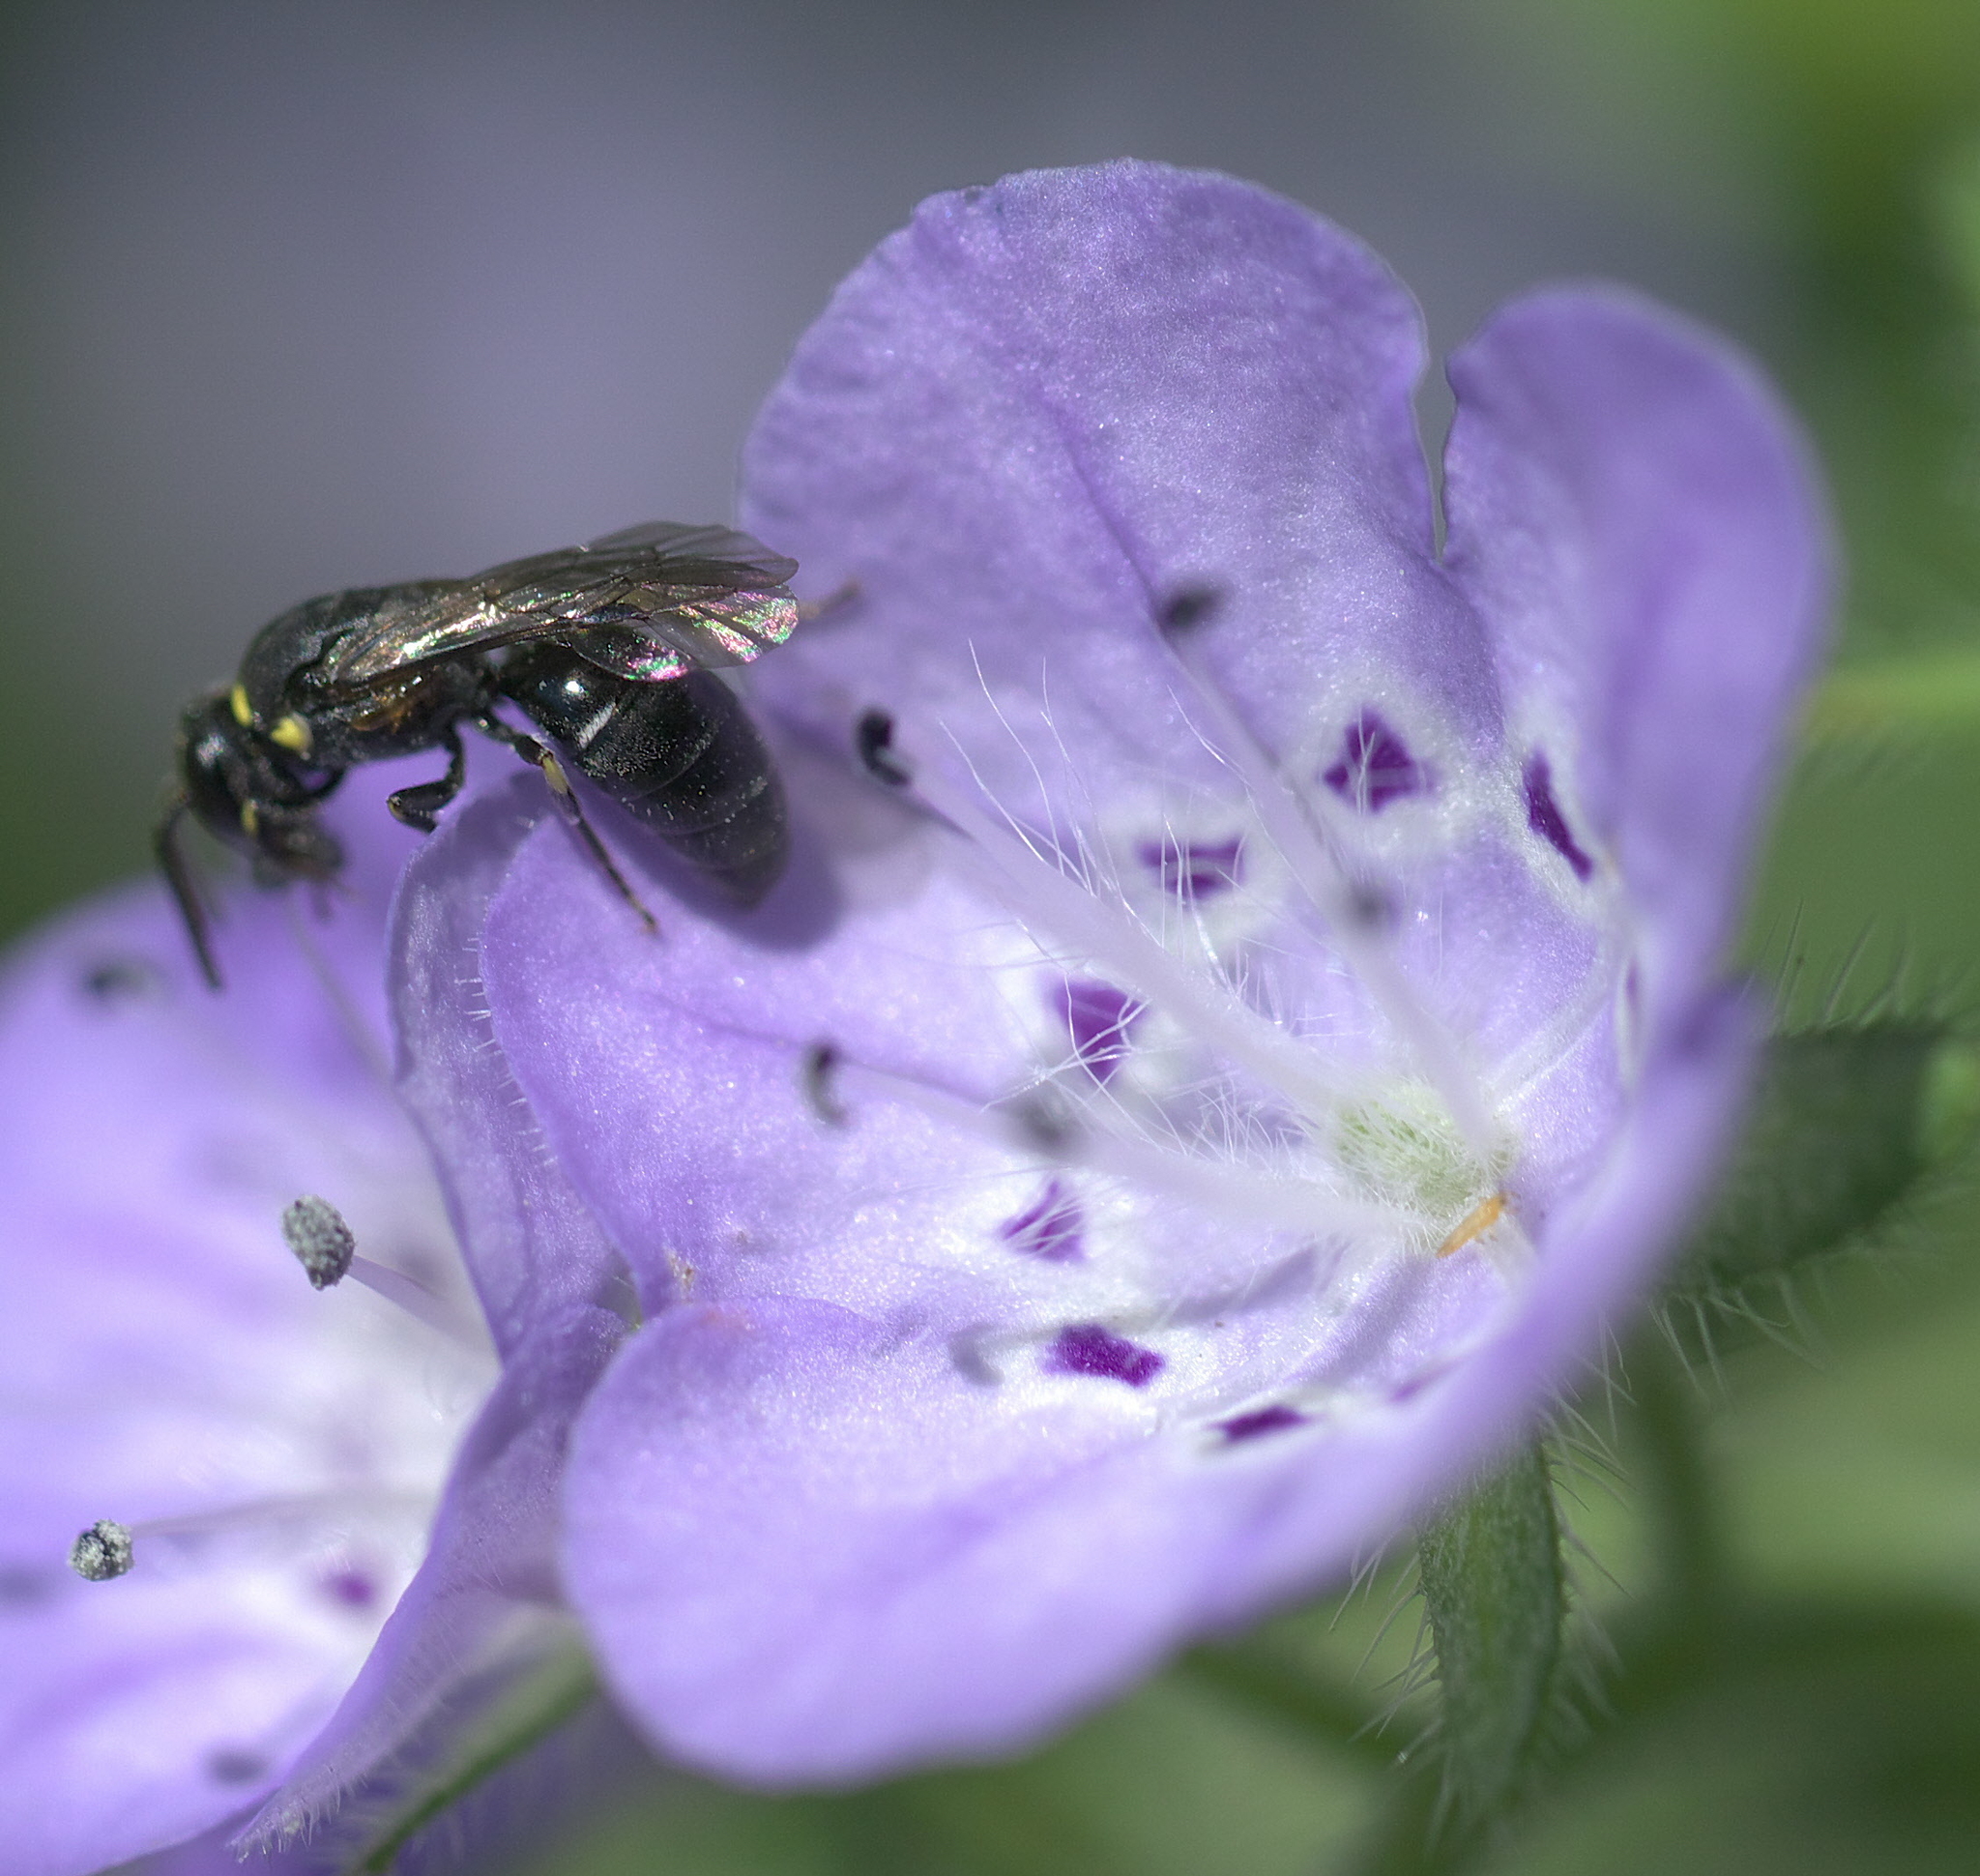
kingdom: Animalia
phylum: Arthropoda
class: Insecta
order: Hymenoptera
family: Colletidae
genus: Hylaeus
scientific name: Hylaeus modestus
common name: Yellow-faced bee
